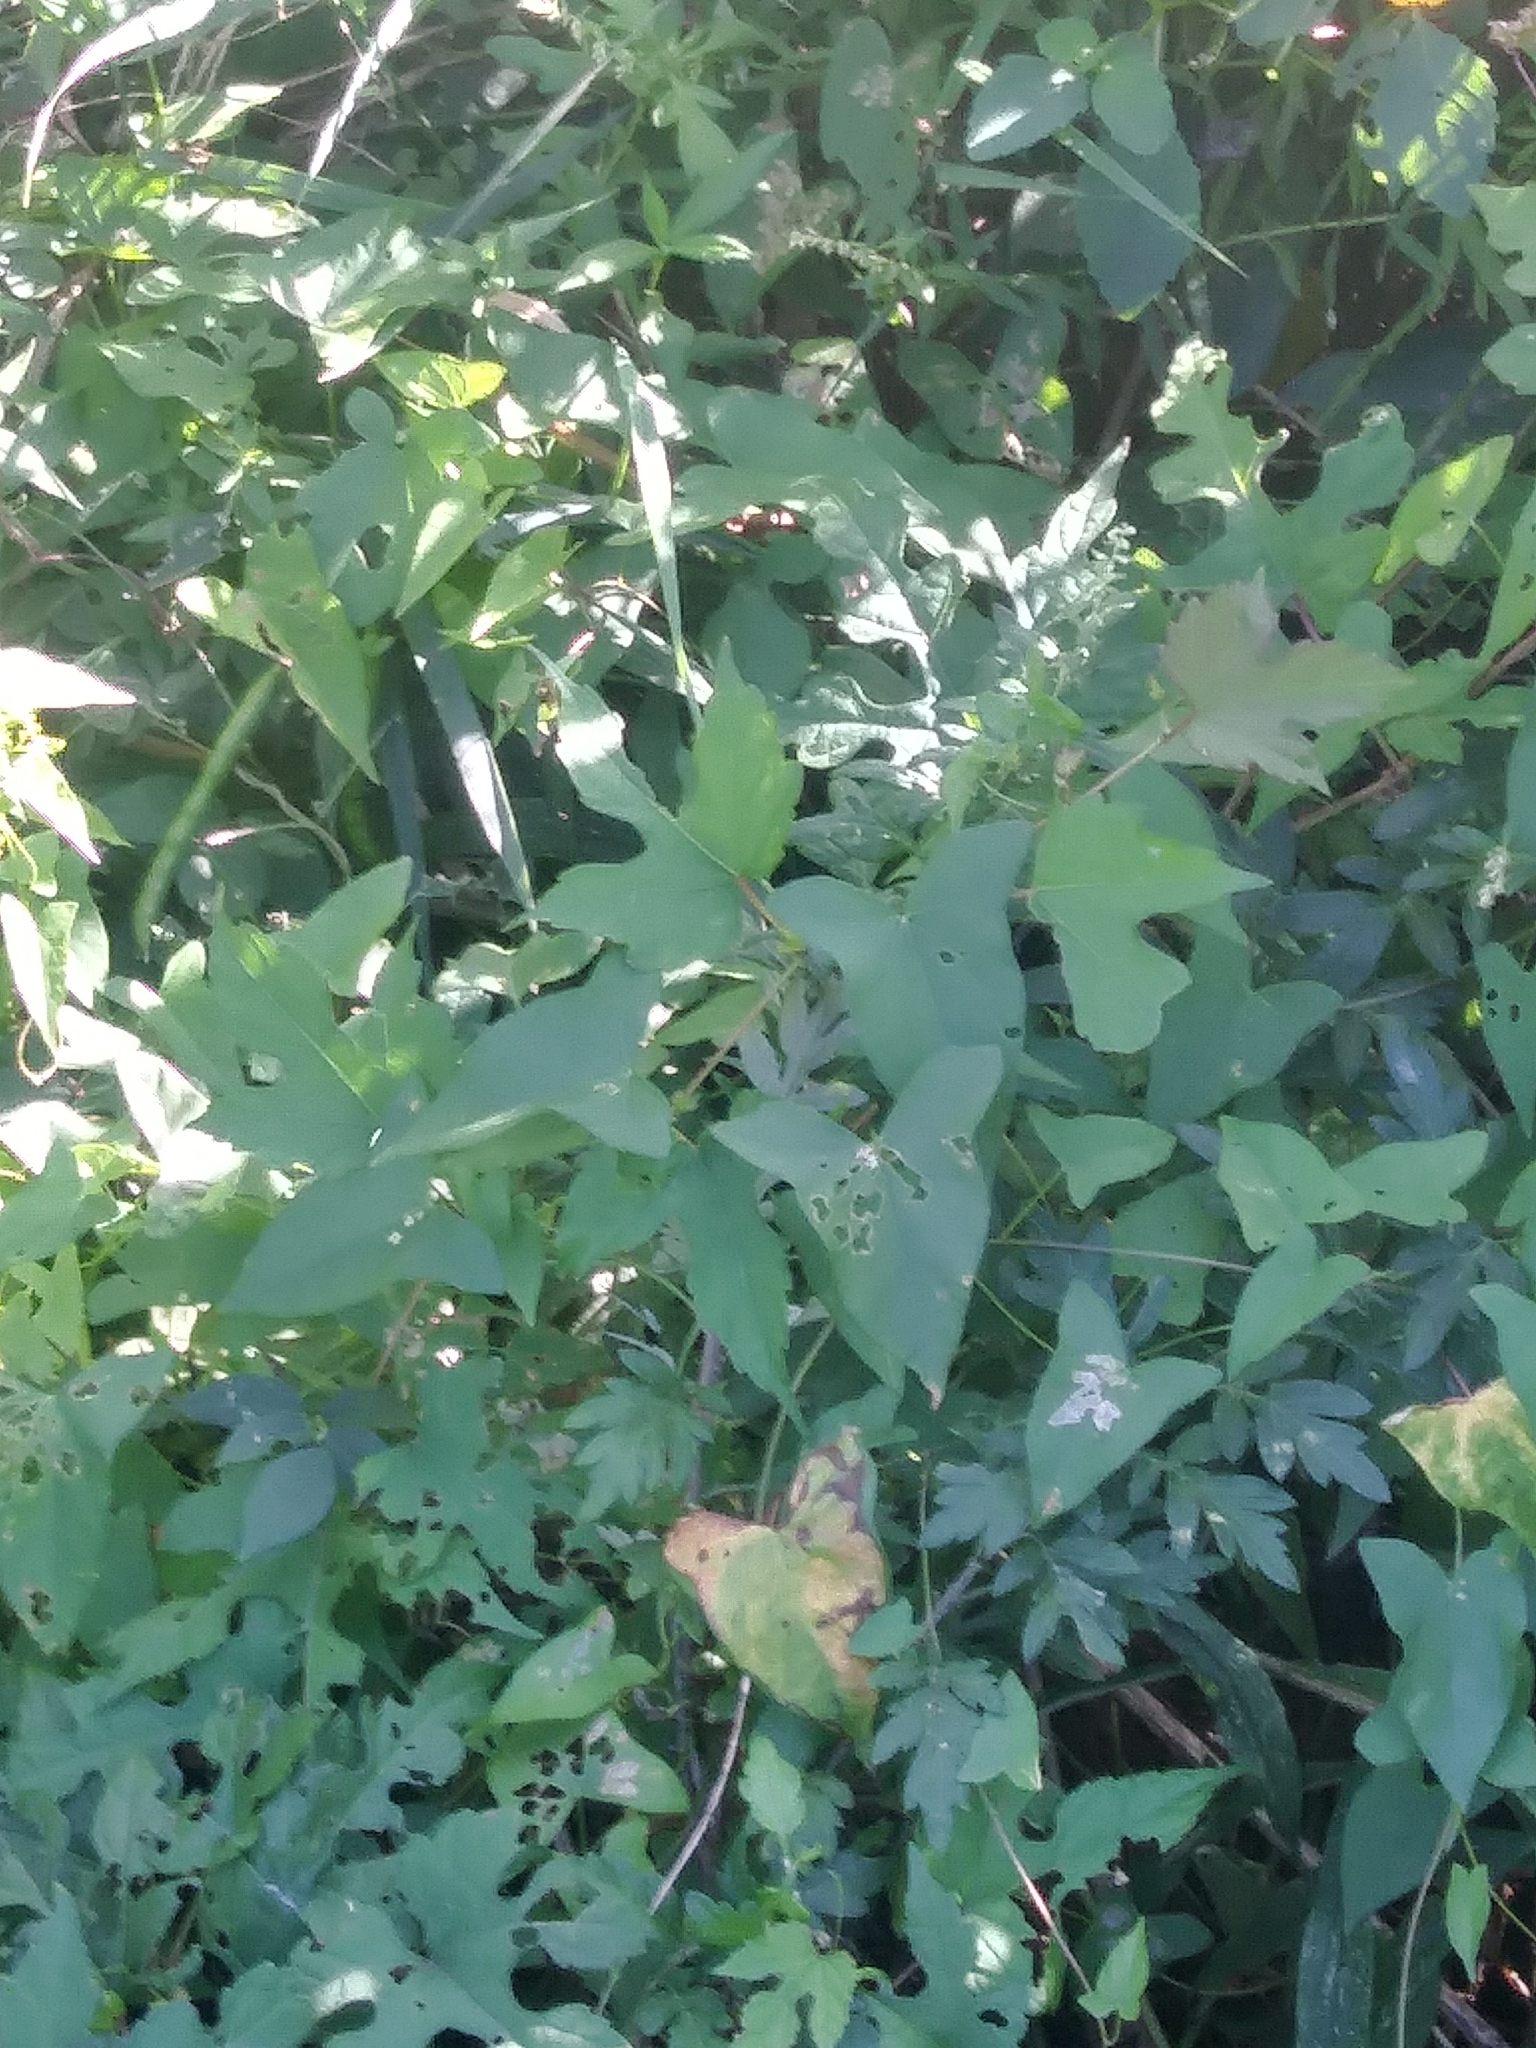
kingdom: Plantae
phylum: Tracheophyta
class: Magnoliopsida
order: Caryophyllales
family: Polygonaceae
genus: Persicaria
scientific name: Persicaria arifolia
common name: Halberd-leaved tear-thumb
